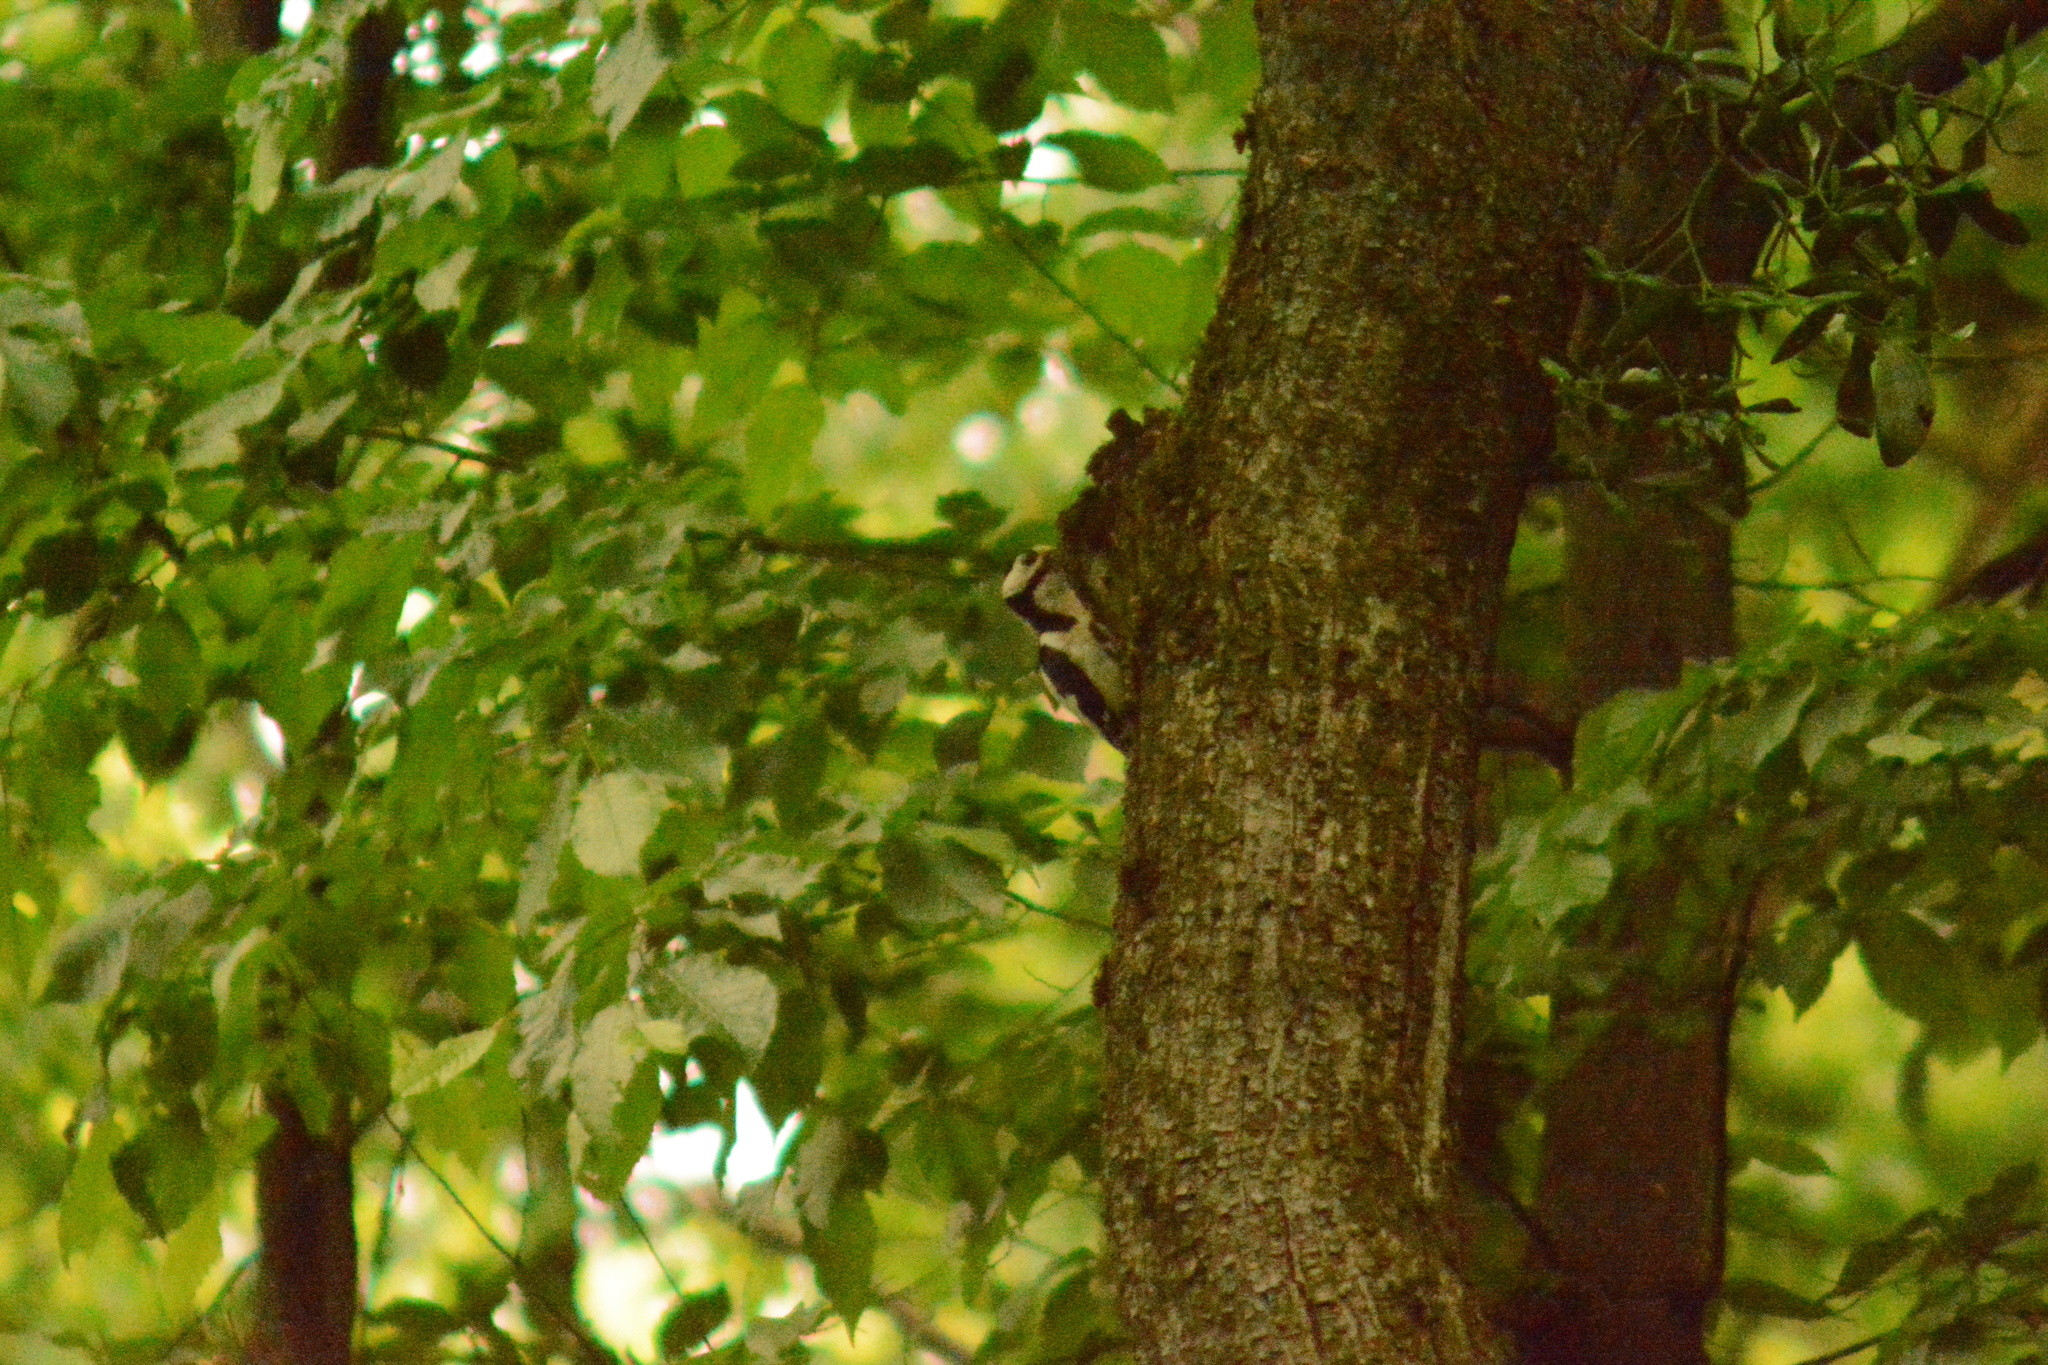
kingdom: Animalia
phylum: Chordata
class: Aves
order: Piciformes
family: Picidae
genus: Dendrocopos
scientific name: Dendrocopos major
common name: Great spotted woodpecker
